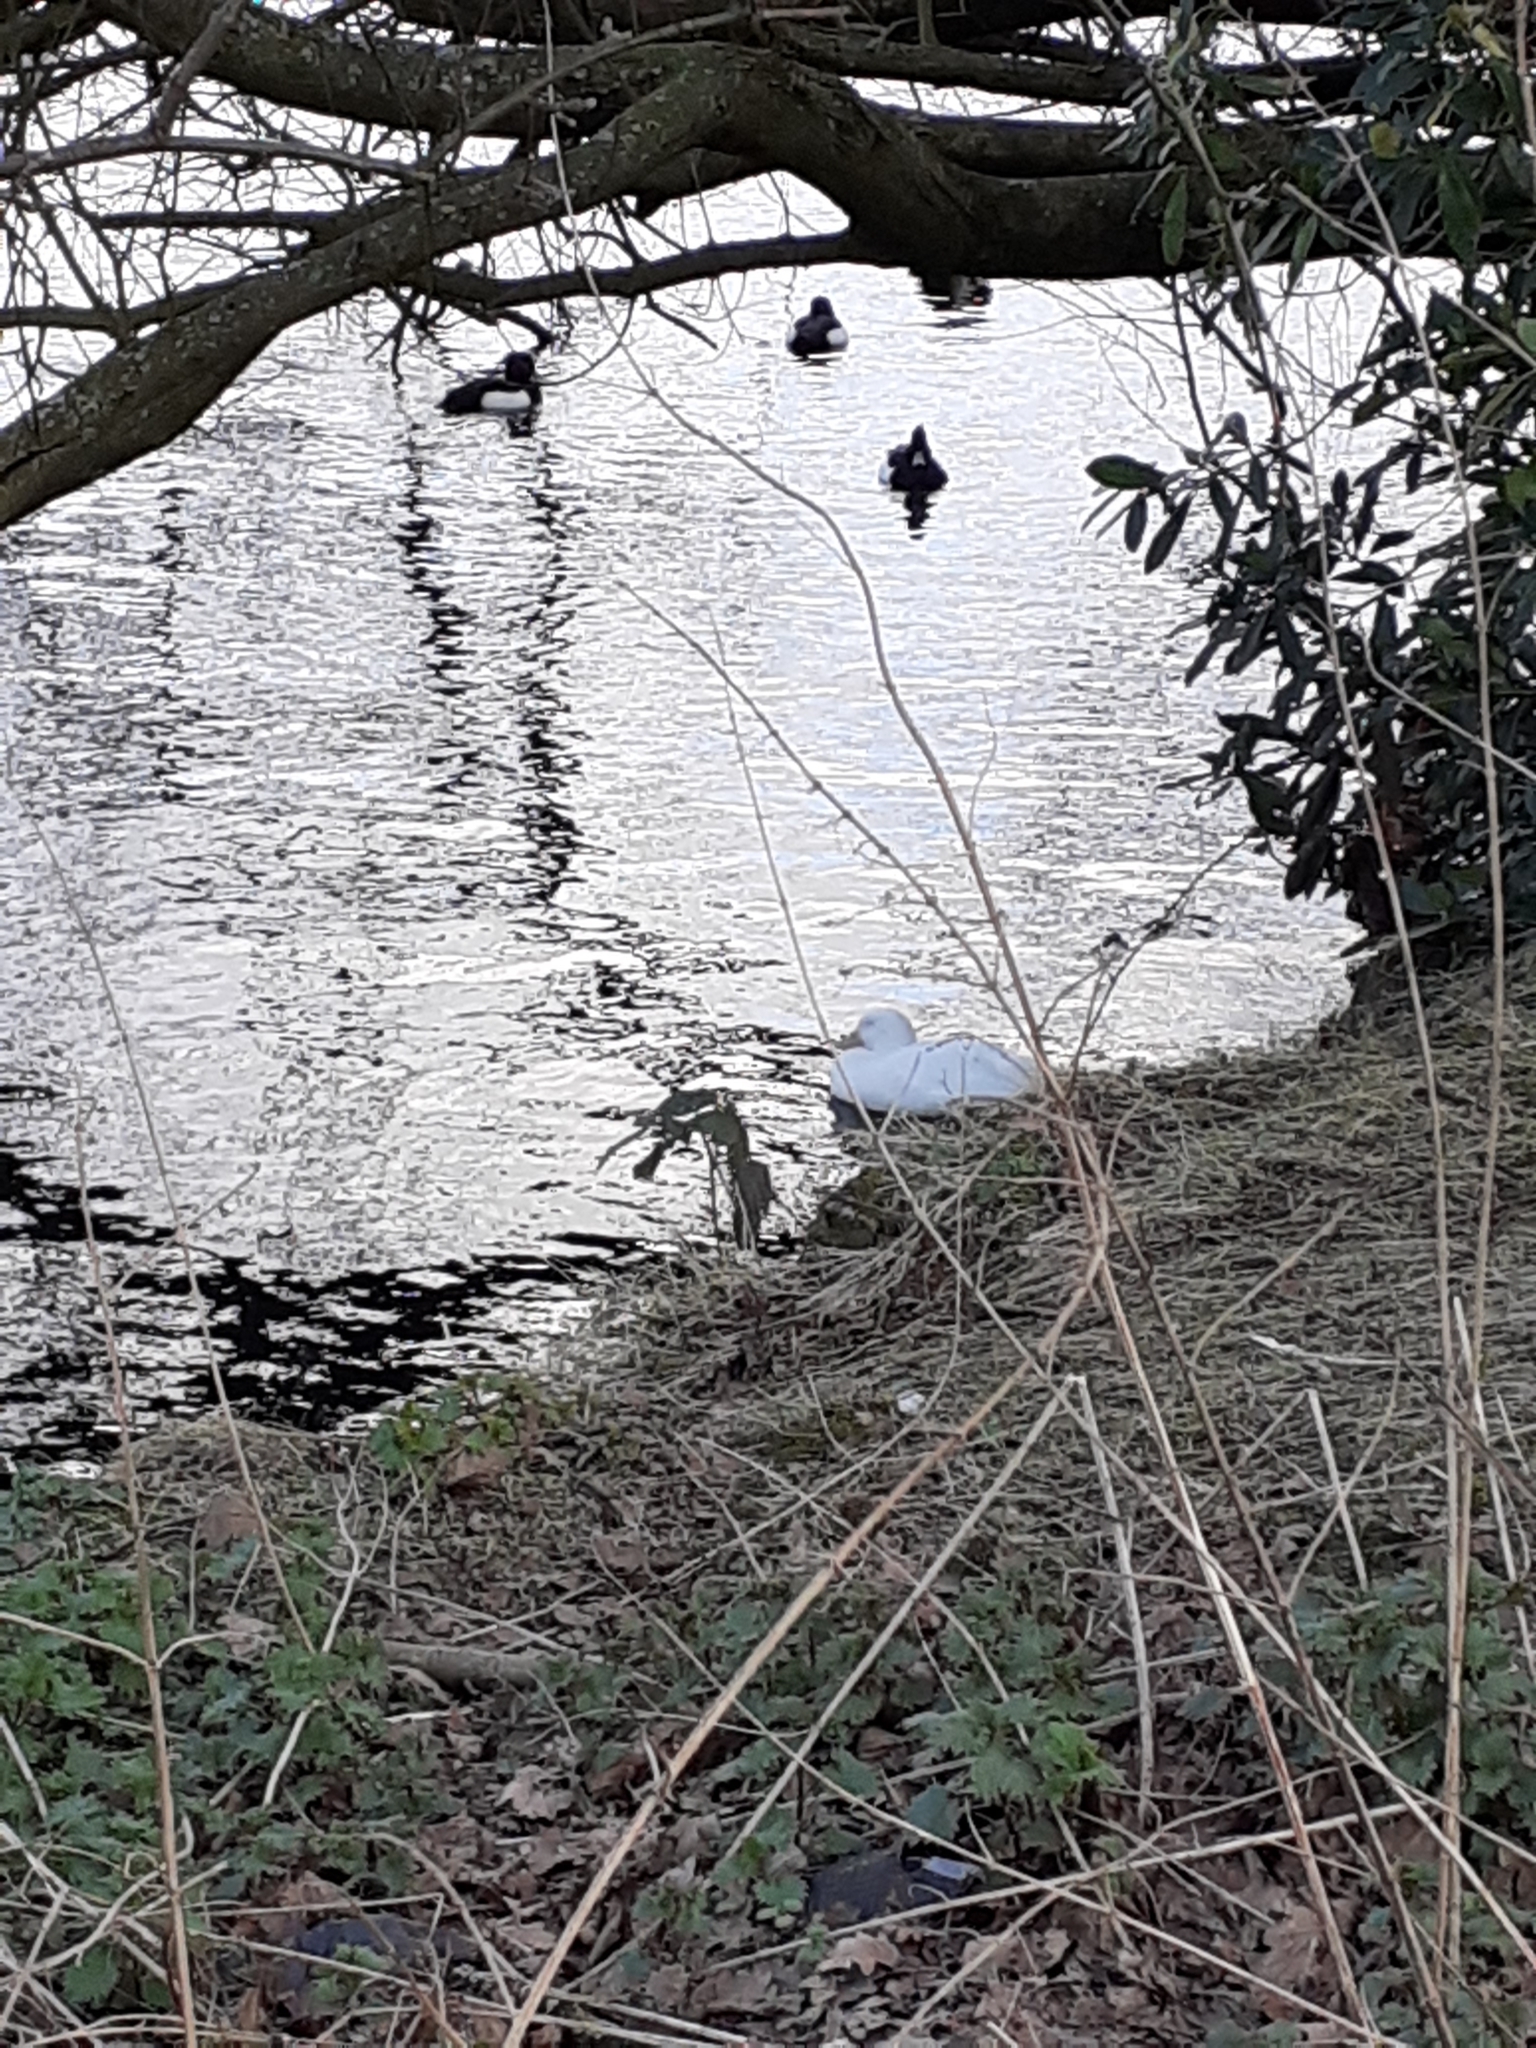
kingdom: Animalia
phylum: Chordata
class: Aves
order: Anseriformes
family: Anatidae
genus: Anas
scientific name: Anas platyrhynchos
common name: Mallard
